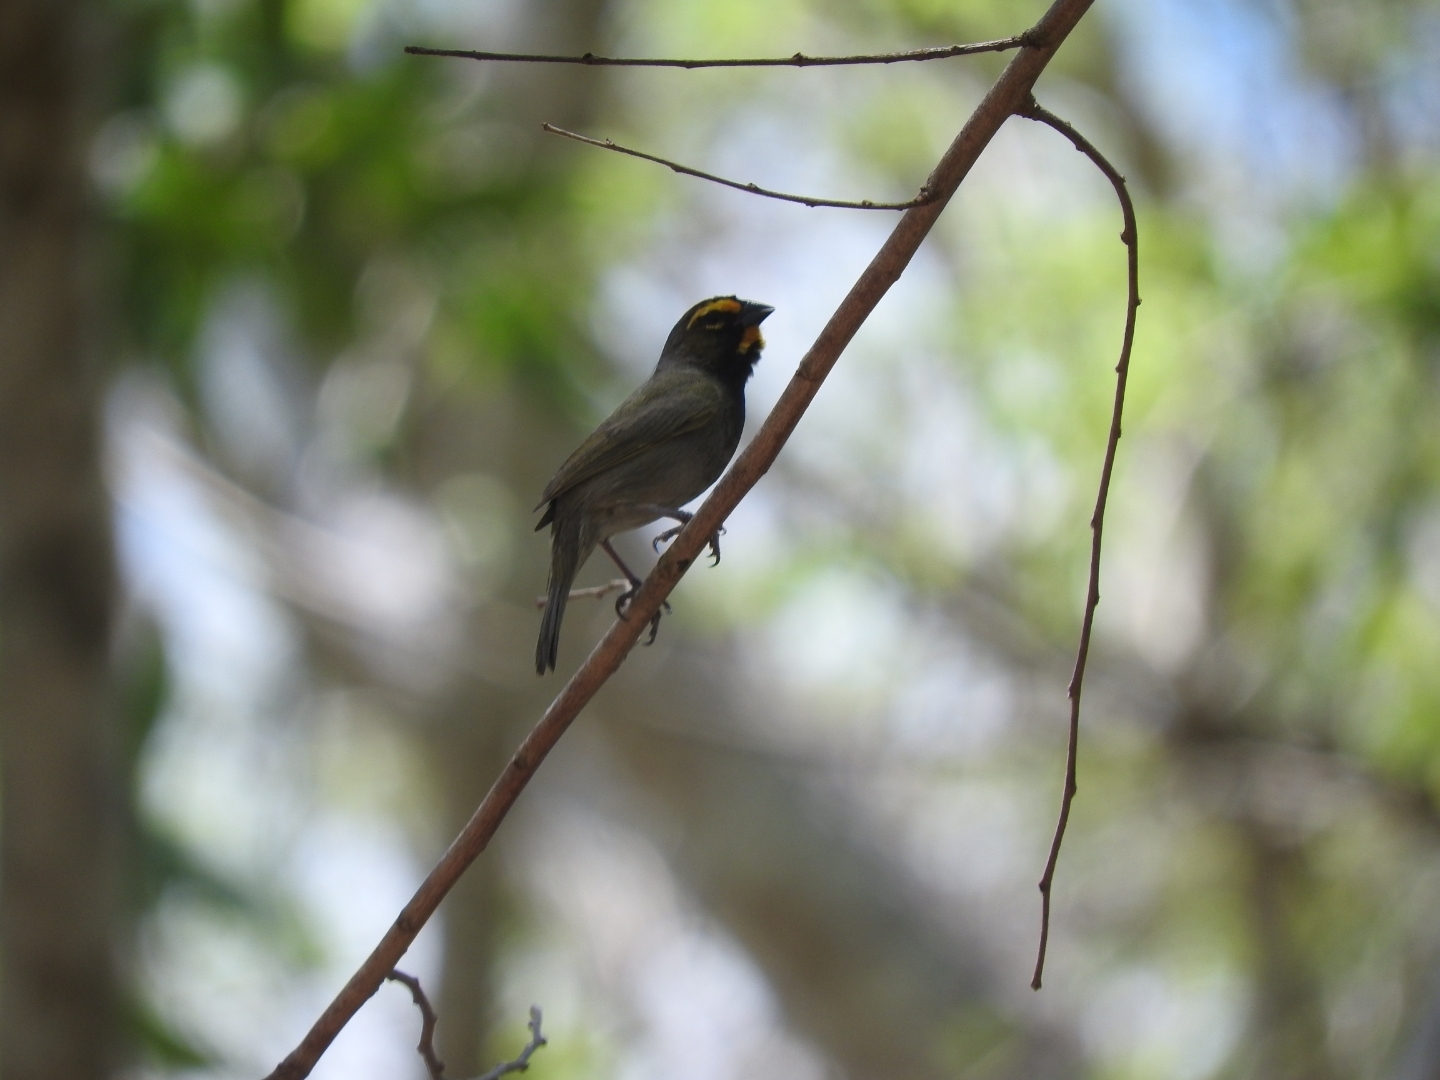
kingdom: Animalia
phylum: Chordata
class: Aves
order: Passeriformes
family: Thraupidae
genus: Tiaris
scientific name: Tiaris olivaceus
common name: Yellow-faced grassquit
